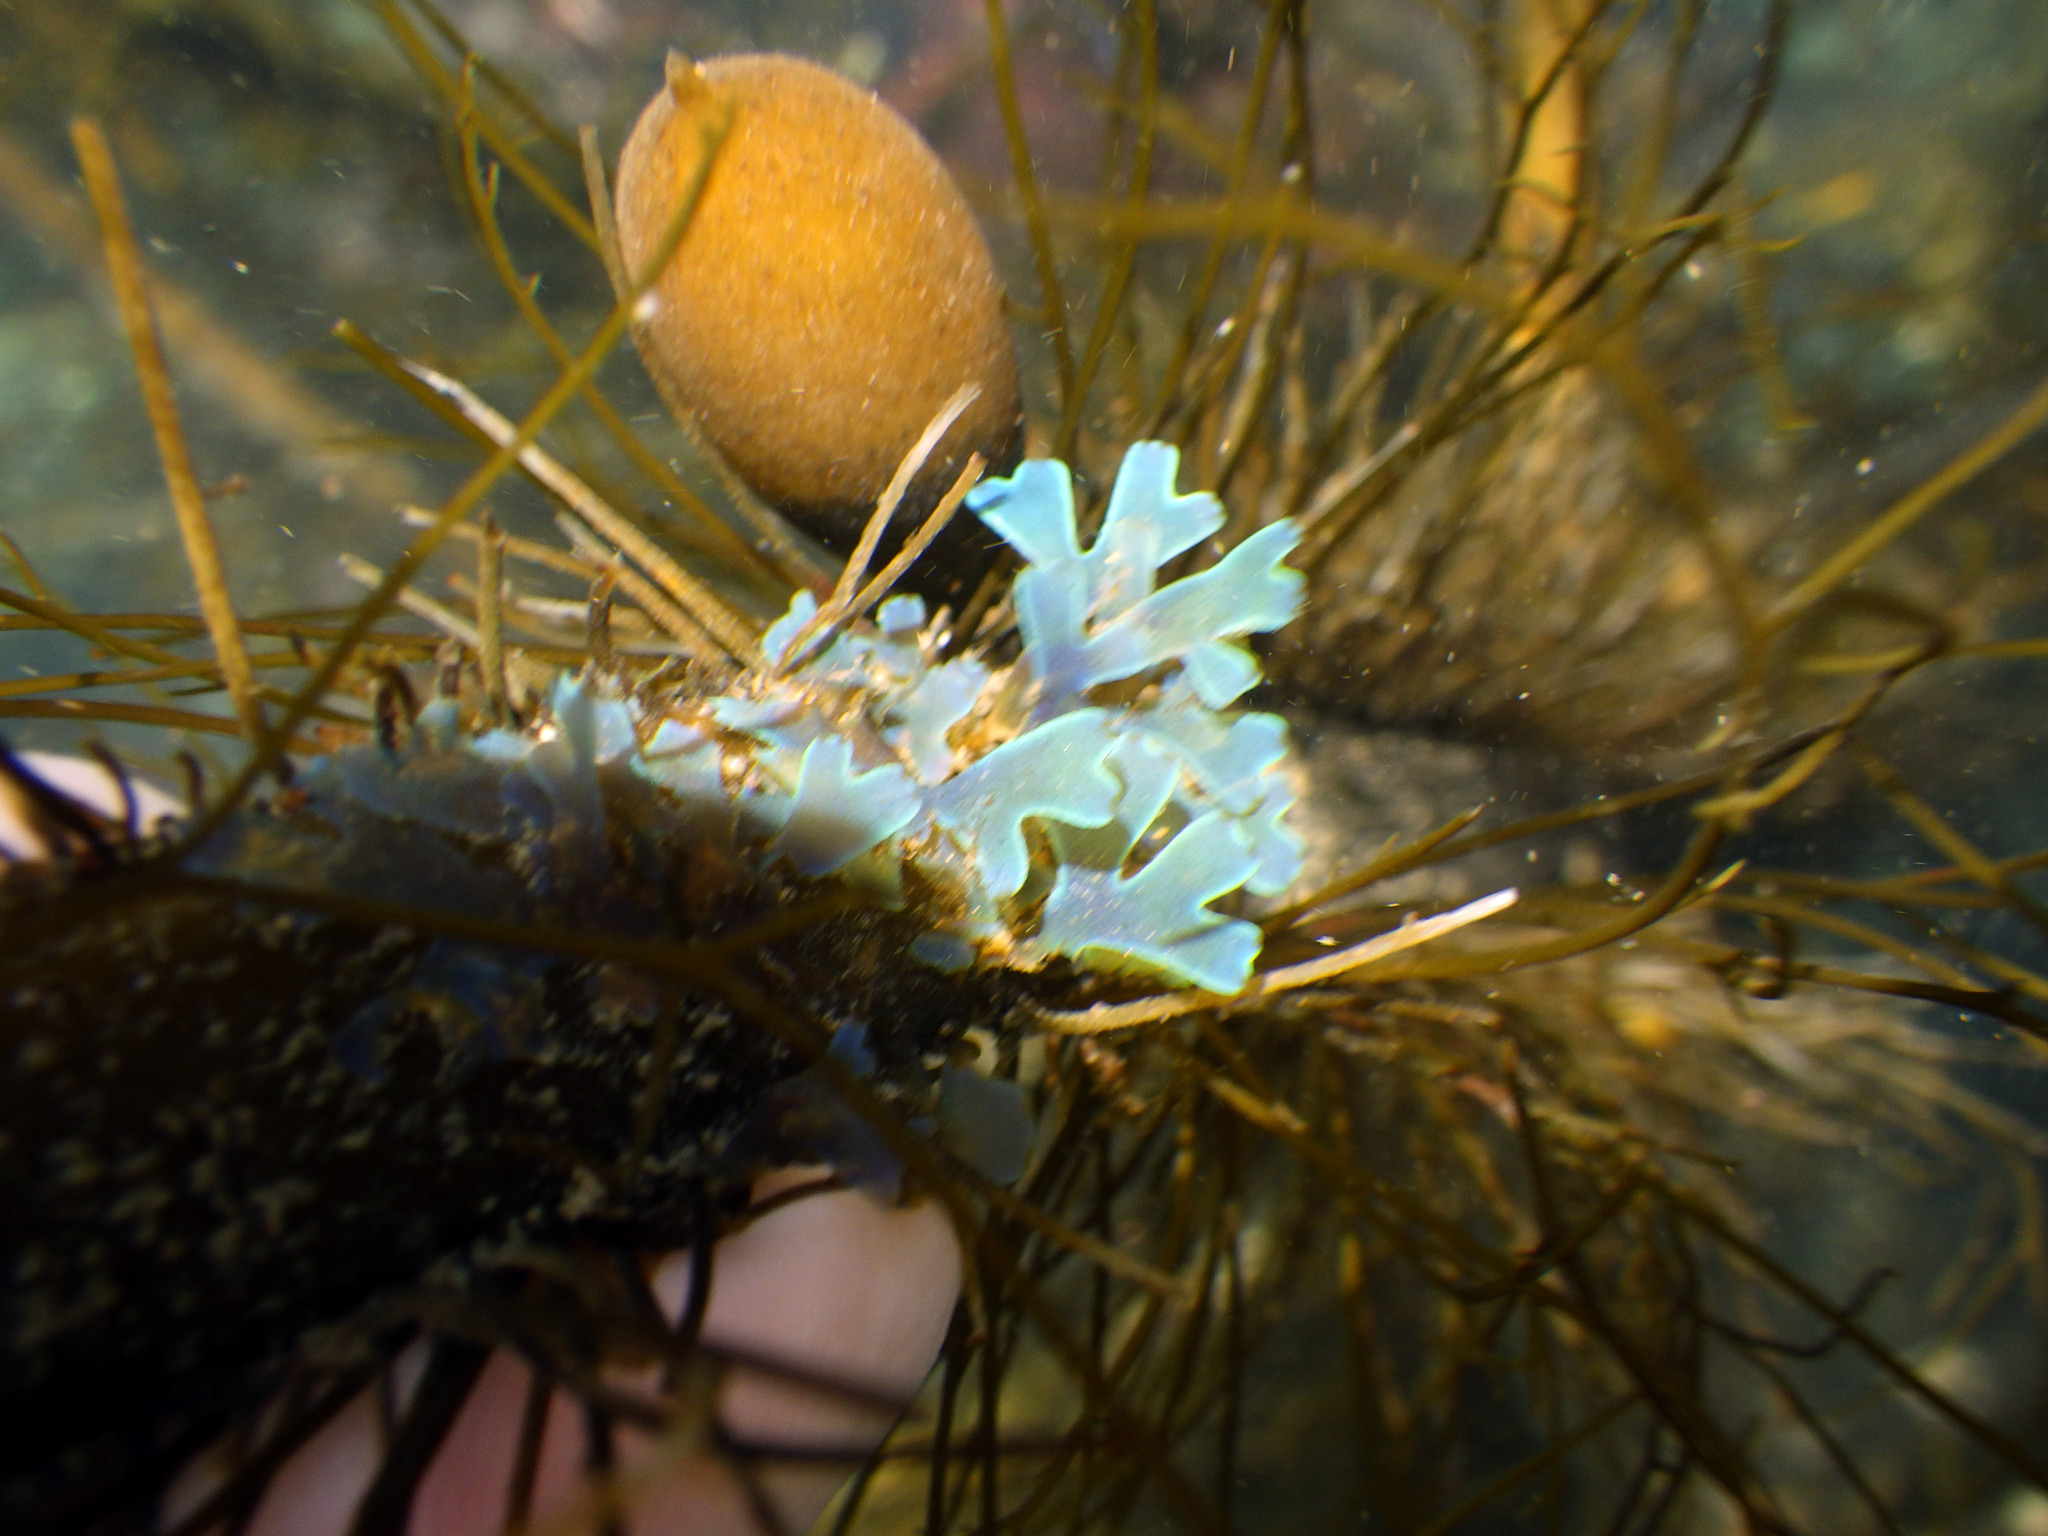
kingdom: Chromista
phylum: Ochrophyta
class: Phaeophyceae
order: Dictyotales
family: Dictyotaceae
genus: Dictyota
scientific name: Dictyota flabellata
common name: Brown algae
